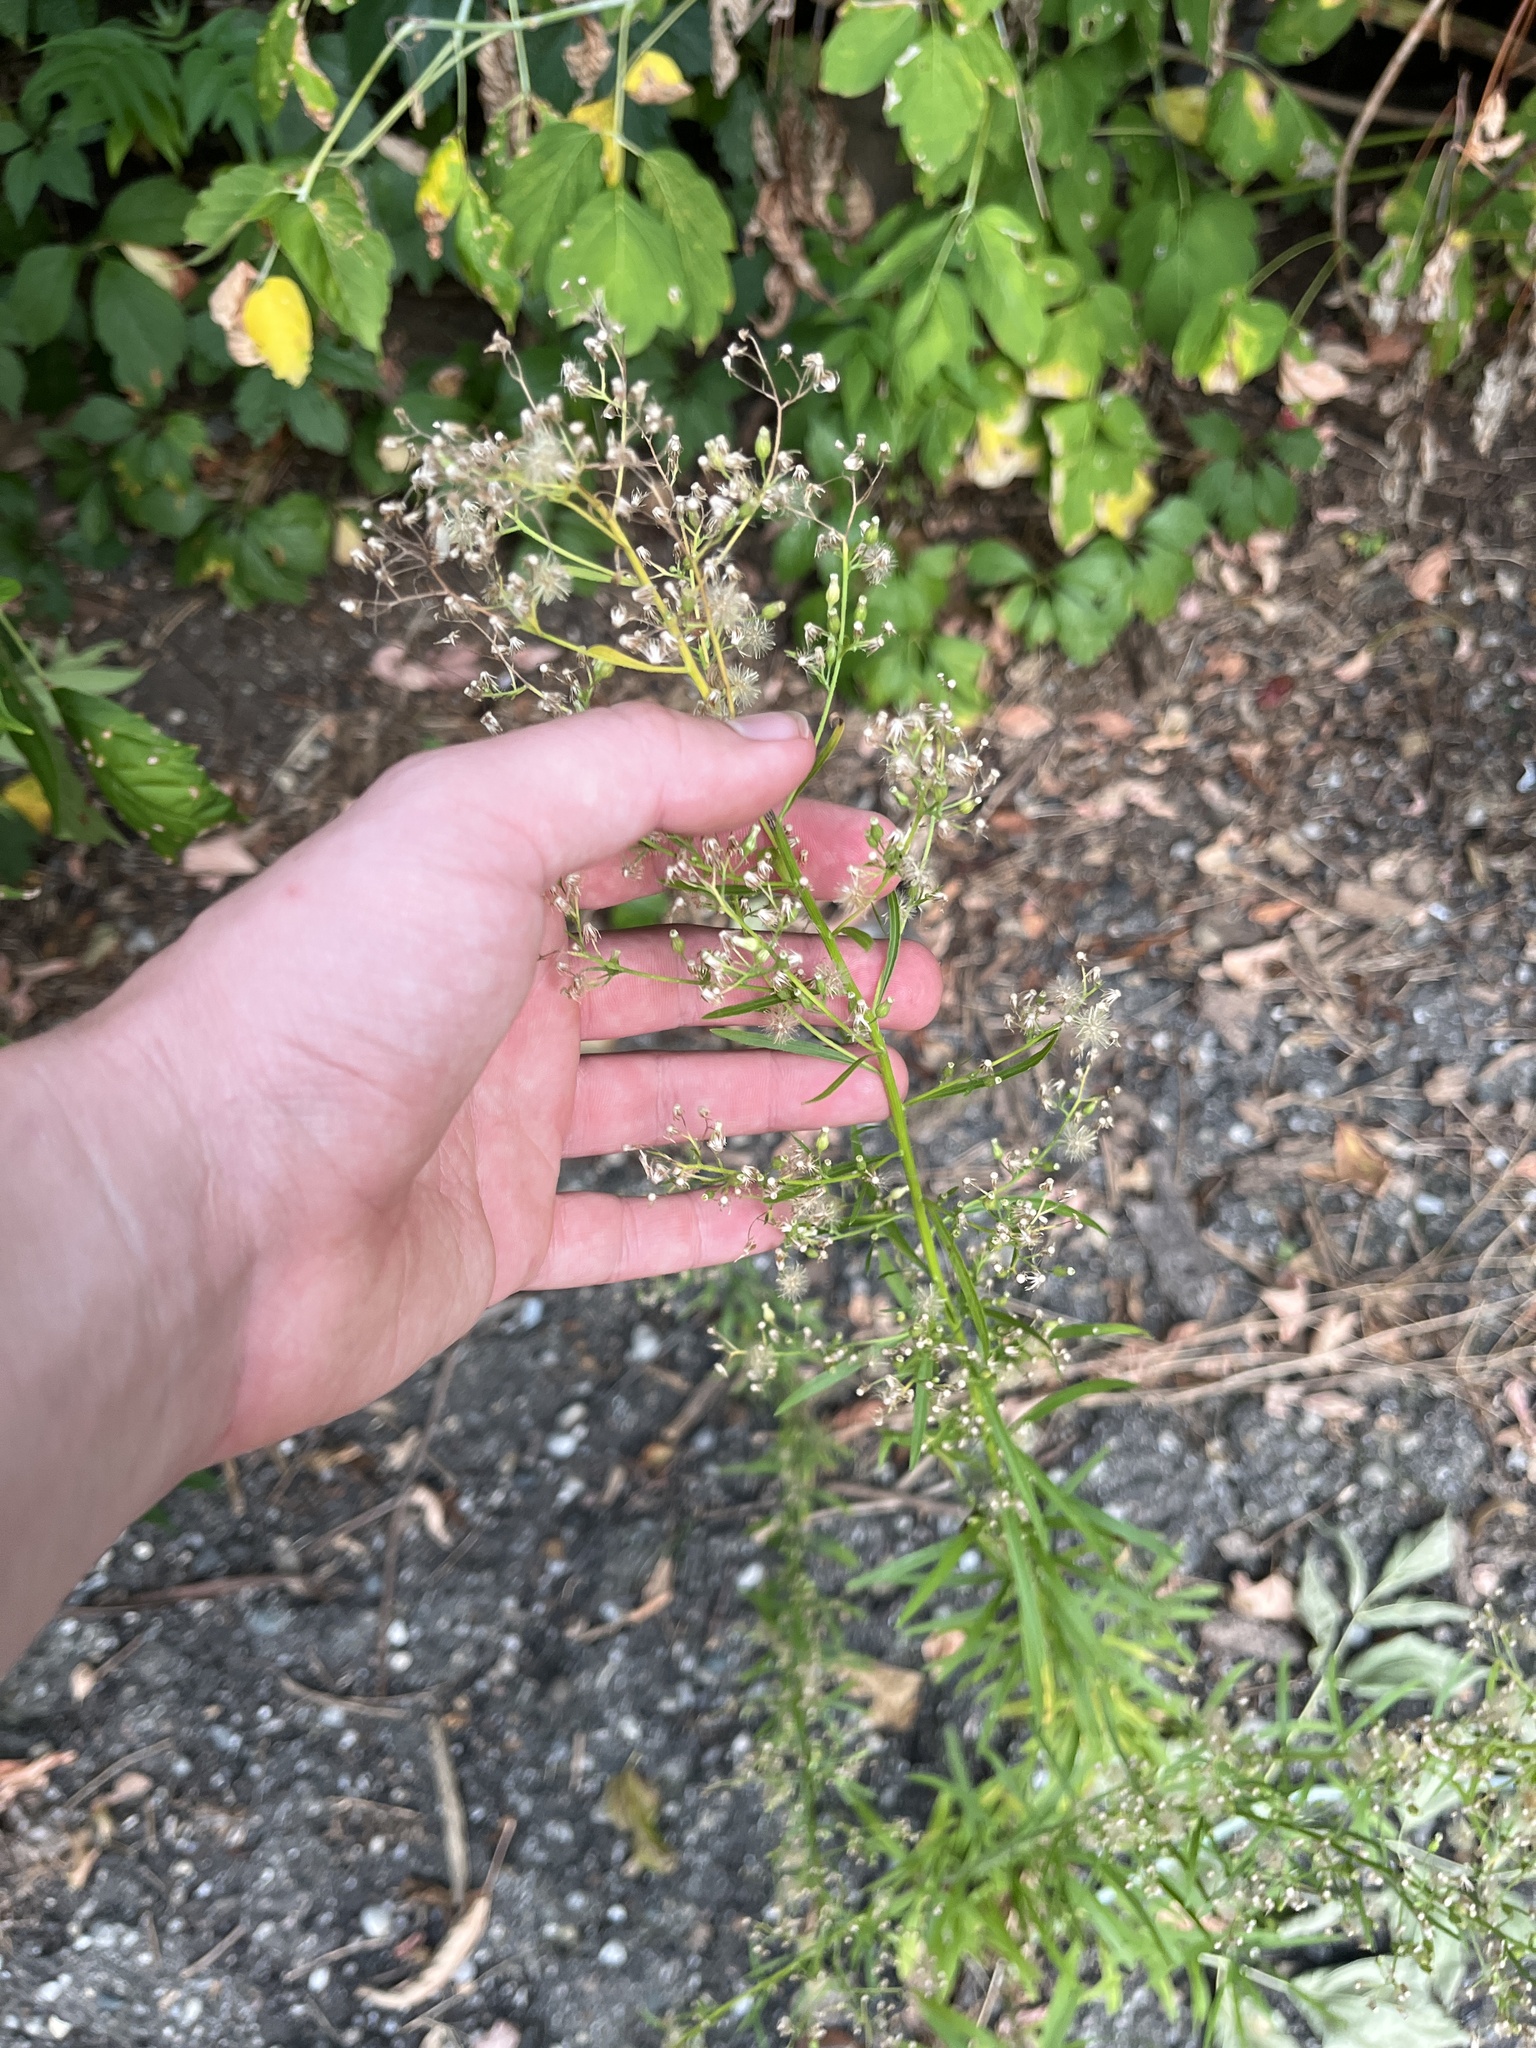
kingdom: Plantae
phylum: Tracheophyta
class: Magnoliopsida
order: Asterales
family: Asteraceae
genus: Erigeron
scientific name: Erigeron canadensis
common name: Canadian fleabane
